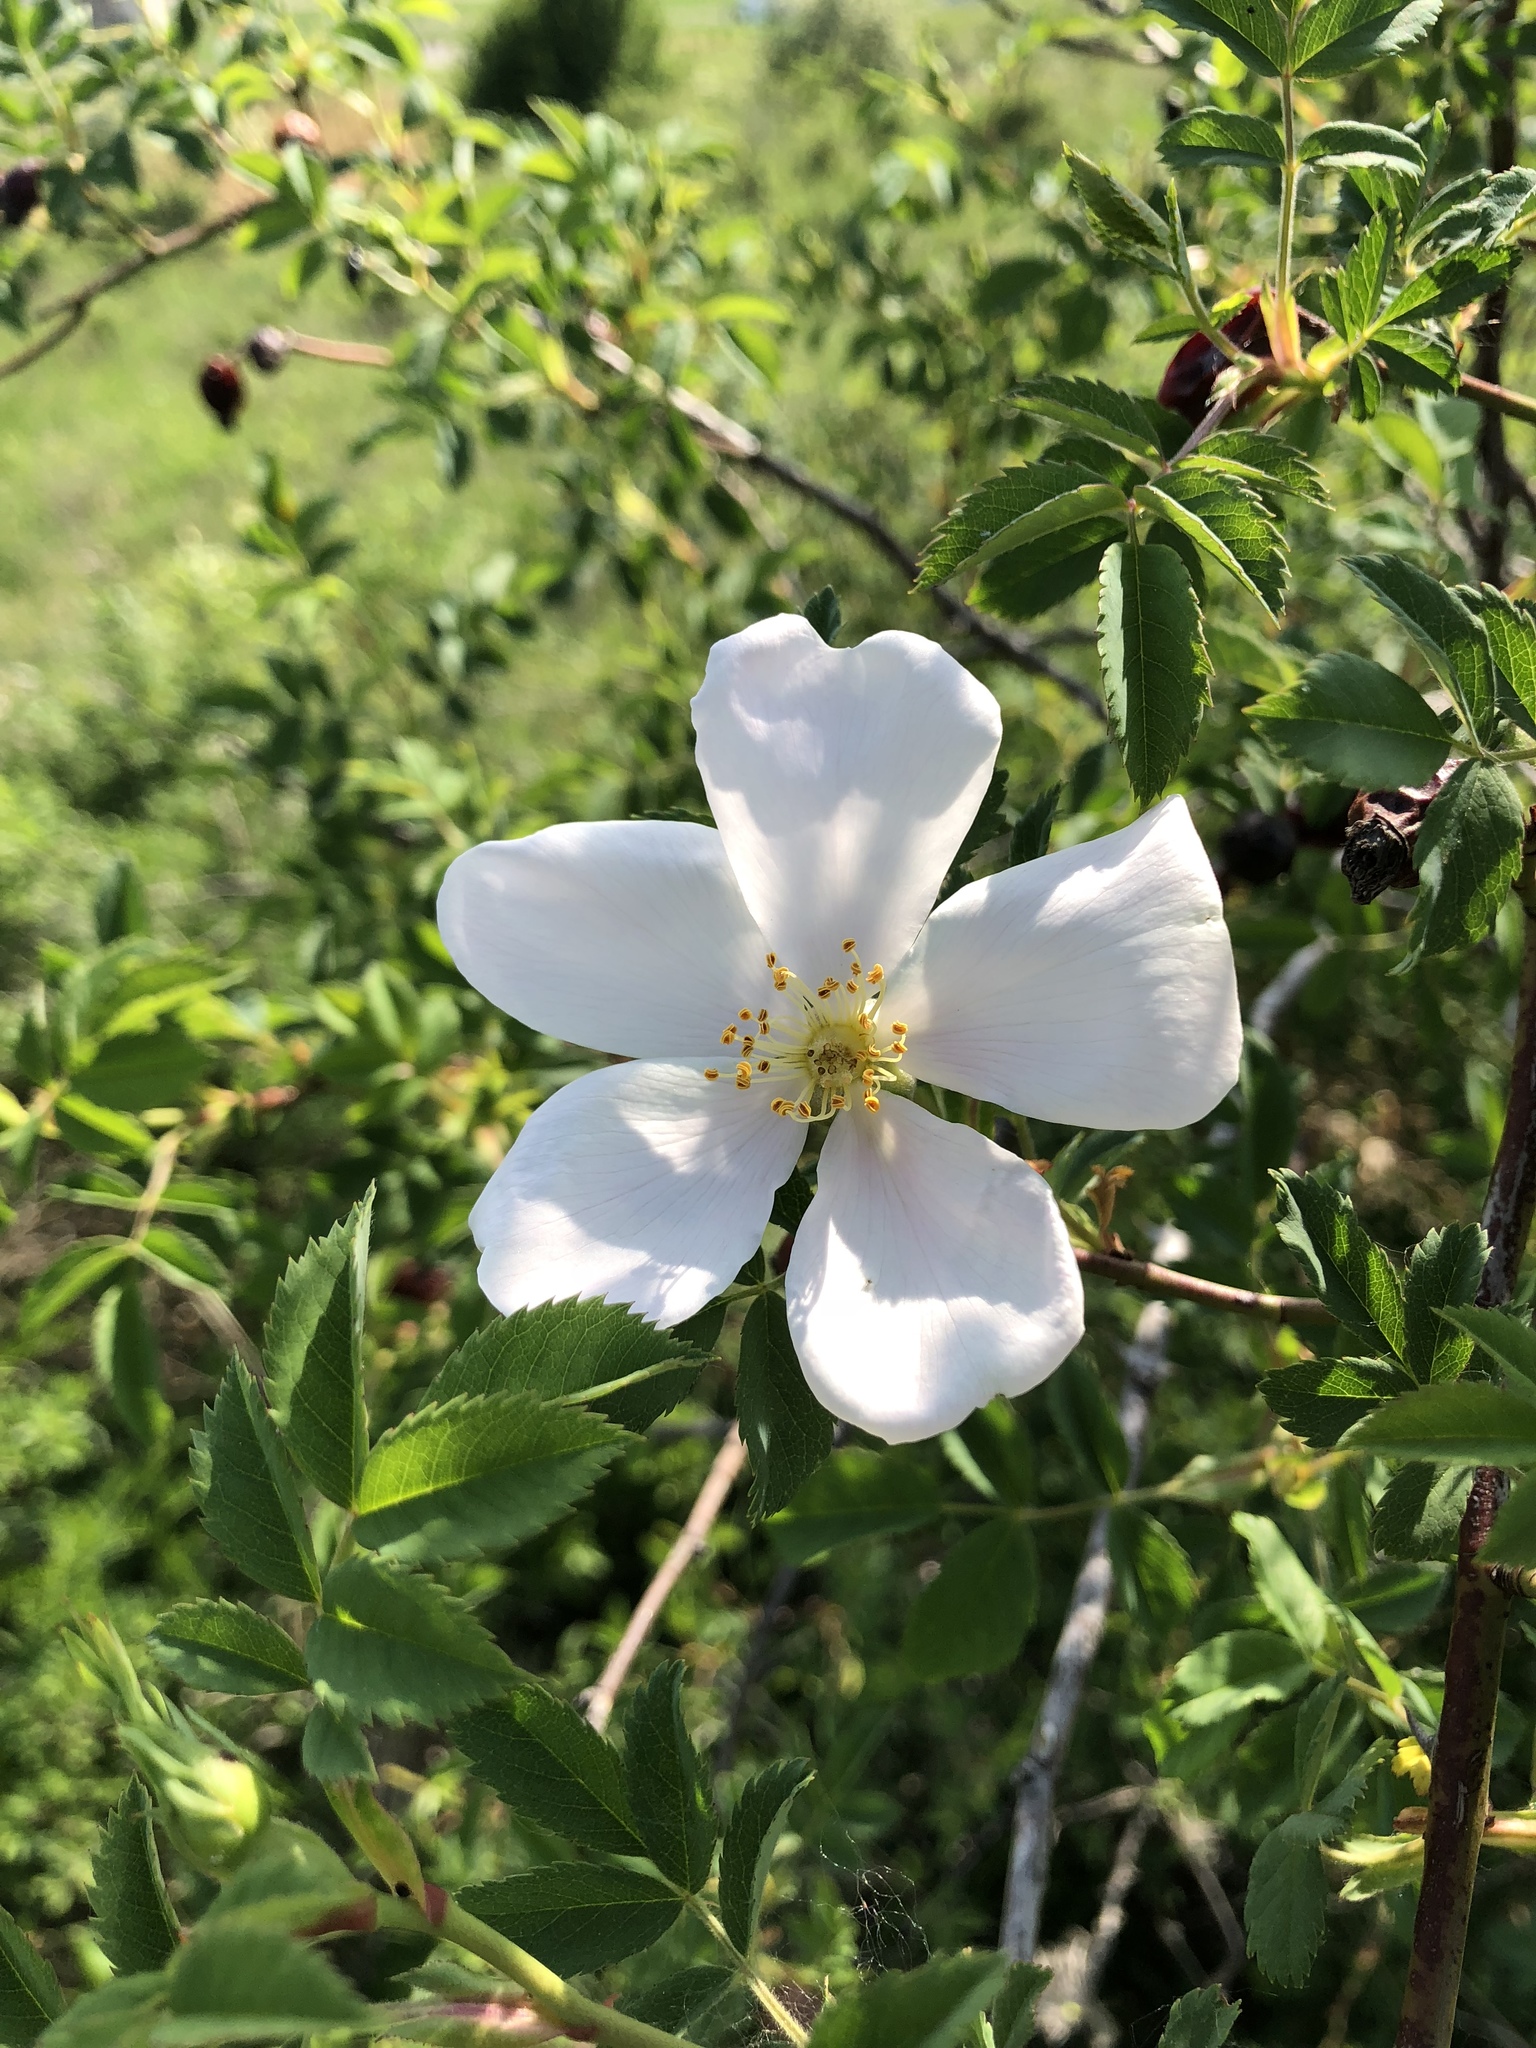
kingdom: Plantae
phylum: Tracheophyta
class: Magnoliopsida
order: Rosales
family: Rosaceae
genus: Rosa
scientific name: Rosa canina
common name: Dog rose
